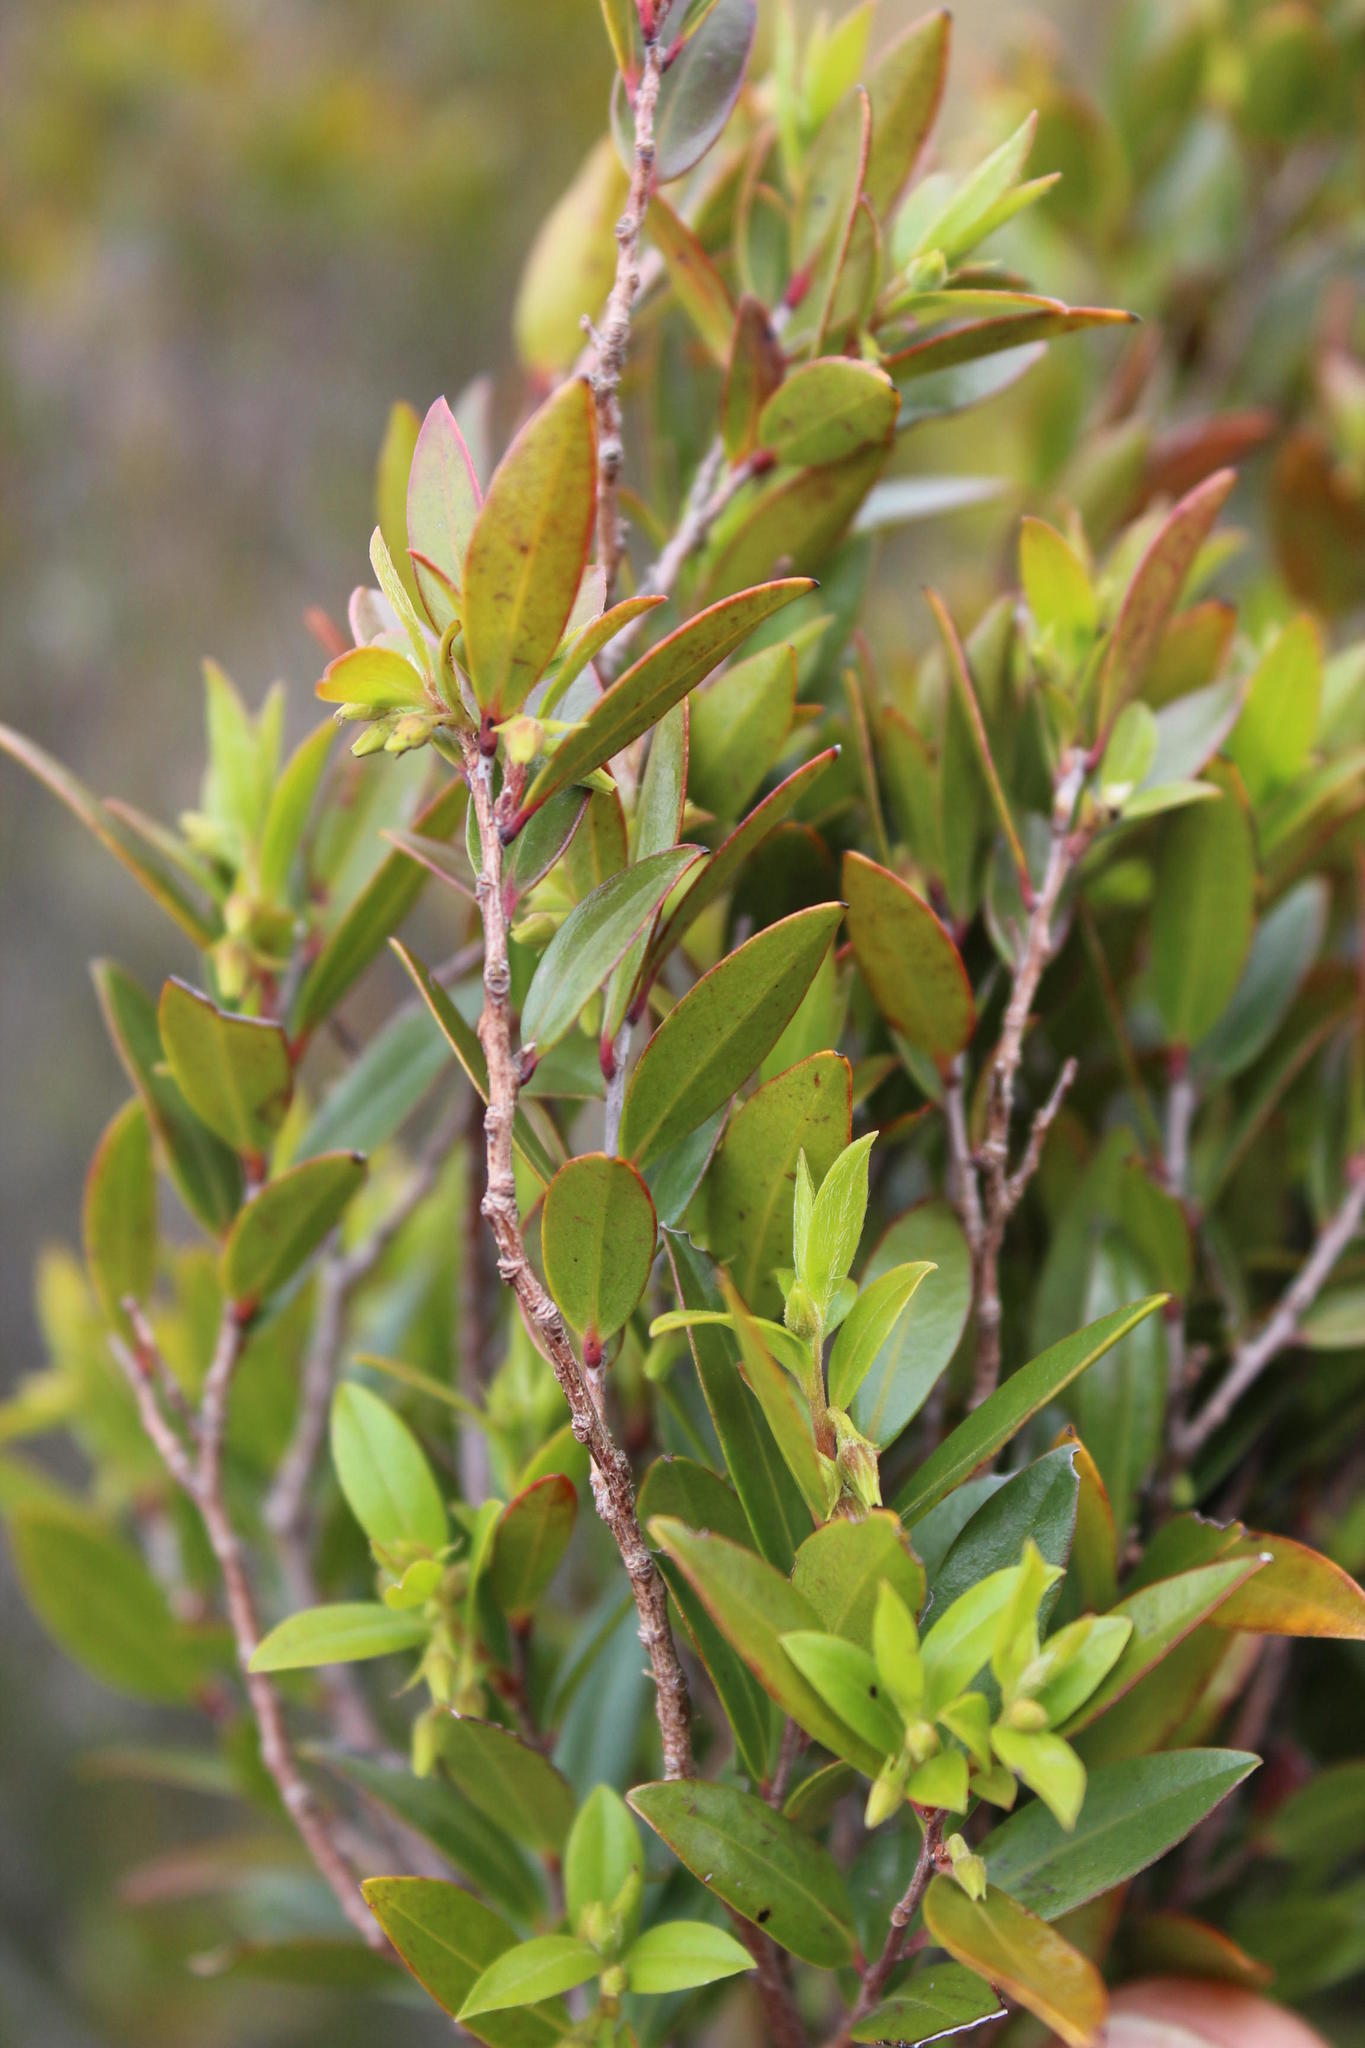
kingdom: Plantae
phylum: Tracheophyta
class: Magnoliopsida
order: Ericales
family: Ebenaceae
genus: Diospyros
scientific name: Diospyros glabra
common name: Fynbos star apple
